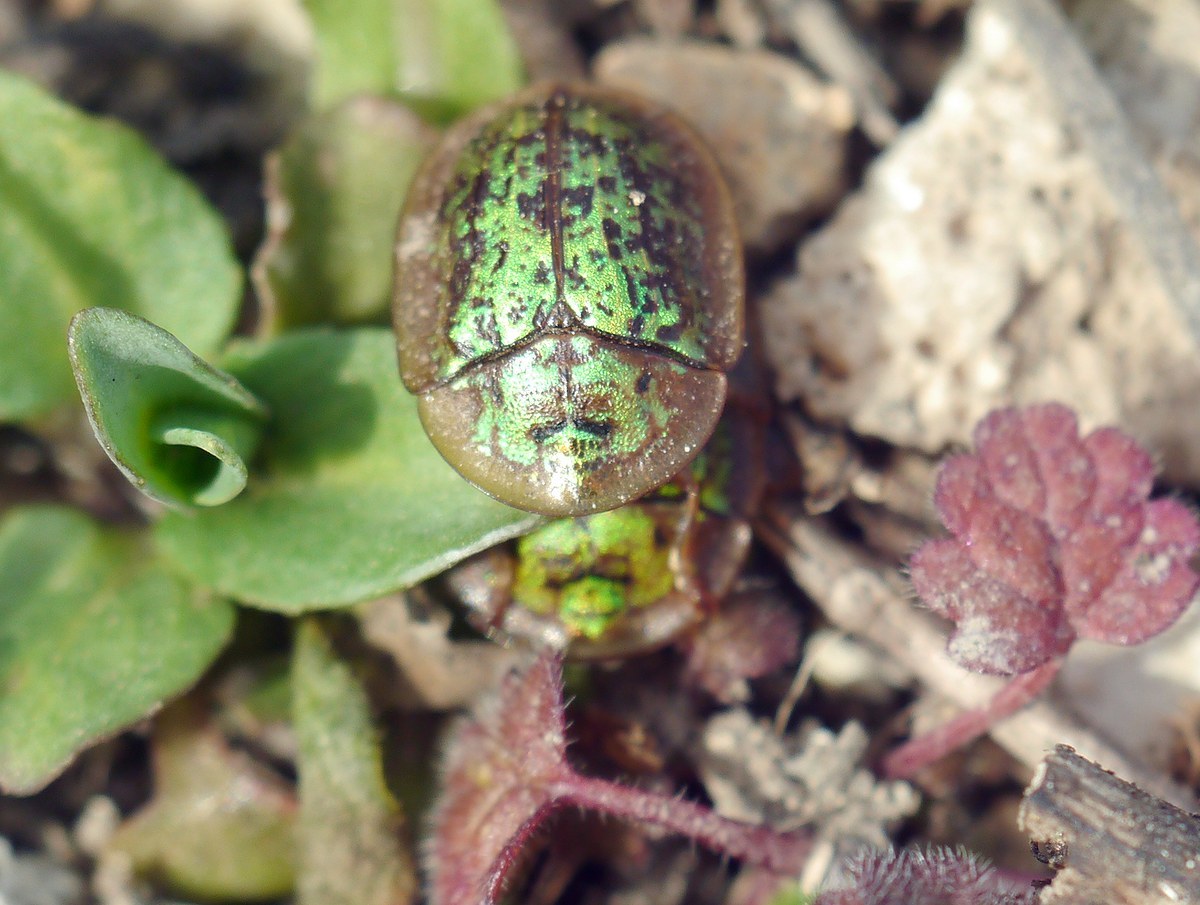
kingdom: Animalia
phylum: Arthropoda
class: Insecta
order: Coleoptera
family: Chrysomelidae
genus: Cassida
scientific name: Cassida canaliculata
